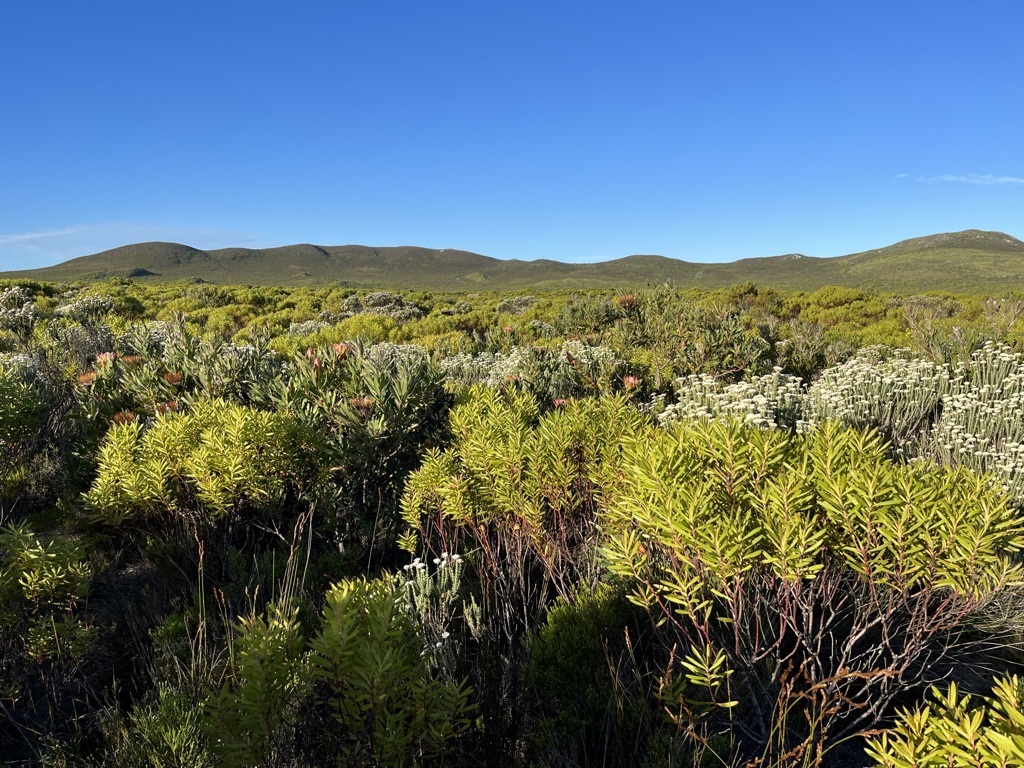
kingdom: Plantae
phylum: Tracheophyta
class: Magnoliopsida
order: Proteales
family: Proteaceae
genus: Leucadendron
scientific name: Leucadendron coniferum
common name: Dune conebush
